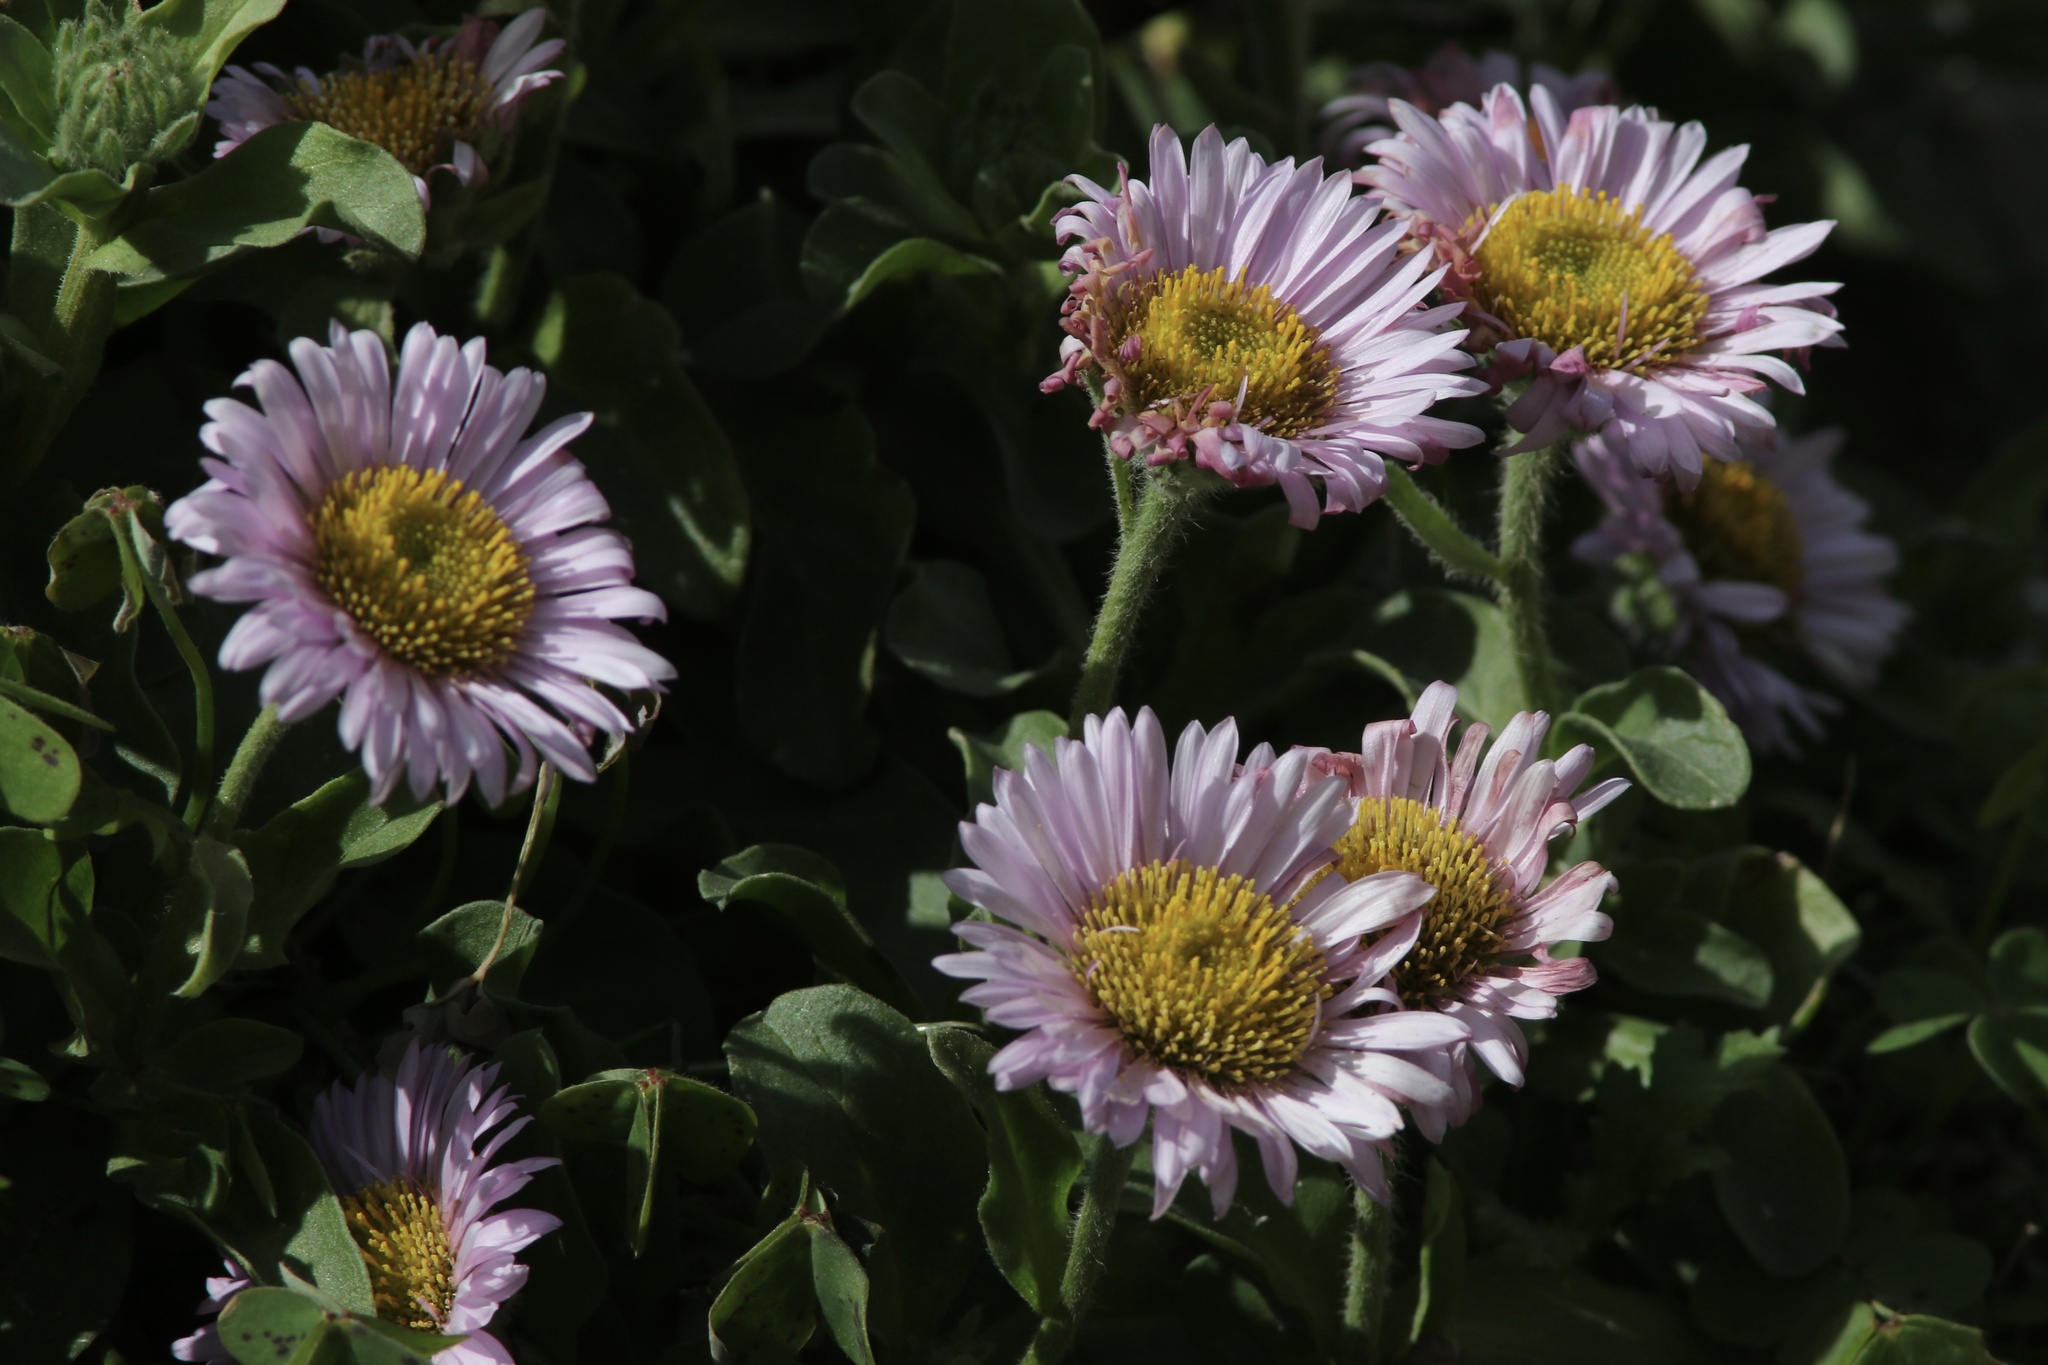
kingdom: Plantae
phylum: Tracheophyta
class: Magnoliopsida
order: Asterales
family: Asteraceae
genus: Erigeron
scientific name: Erigeron glaucus
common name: Seaside daisy
